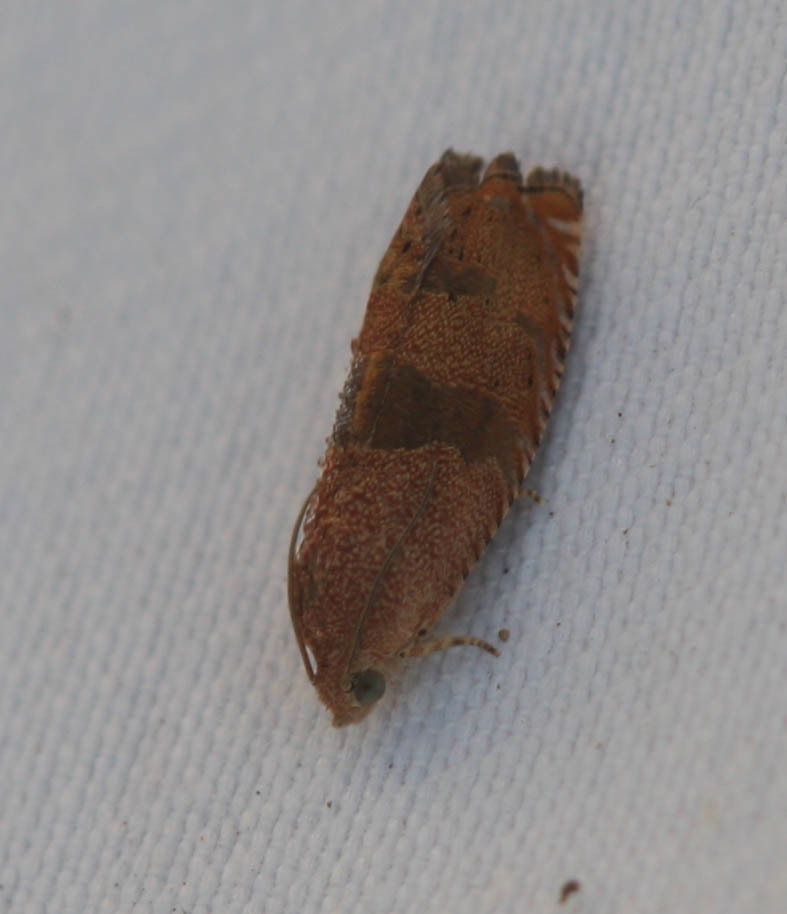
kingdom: Animalia
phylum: Arthropoda
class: Insecta
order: Lepidoptera
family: Tortricidae
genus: Cydia
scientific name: Cydia latiferreana
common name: Filbertworm moth
